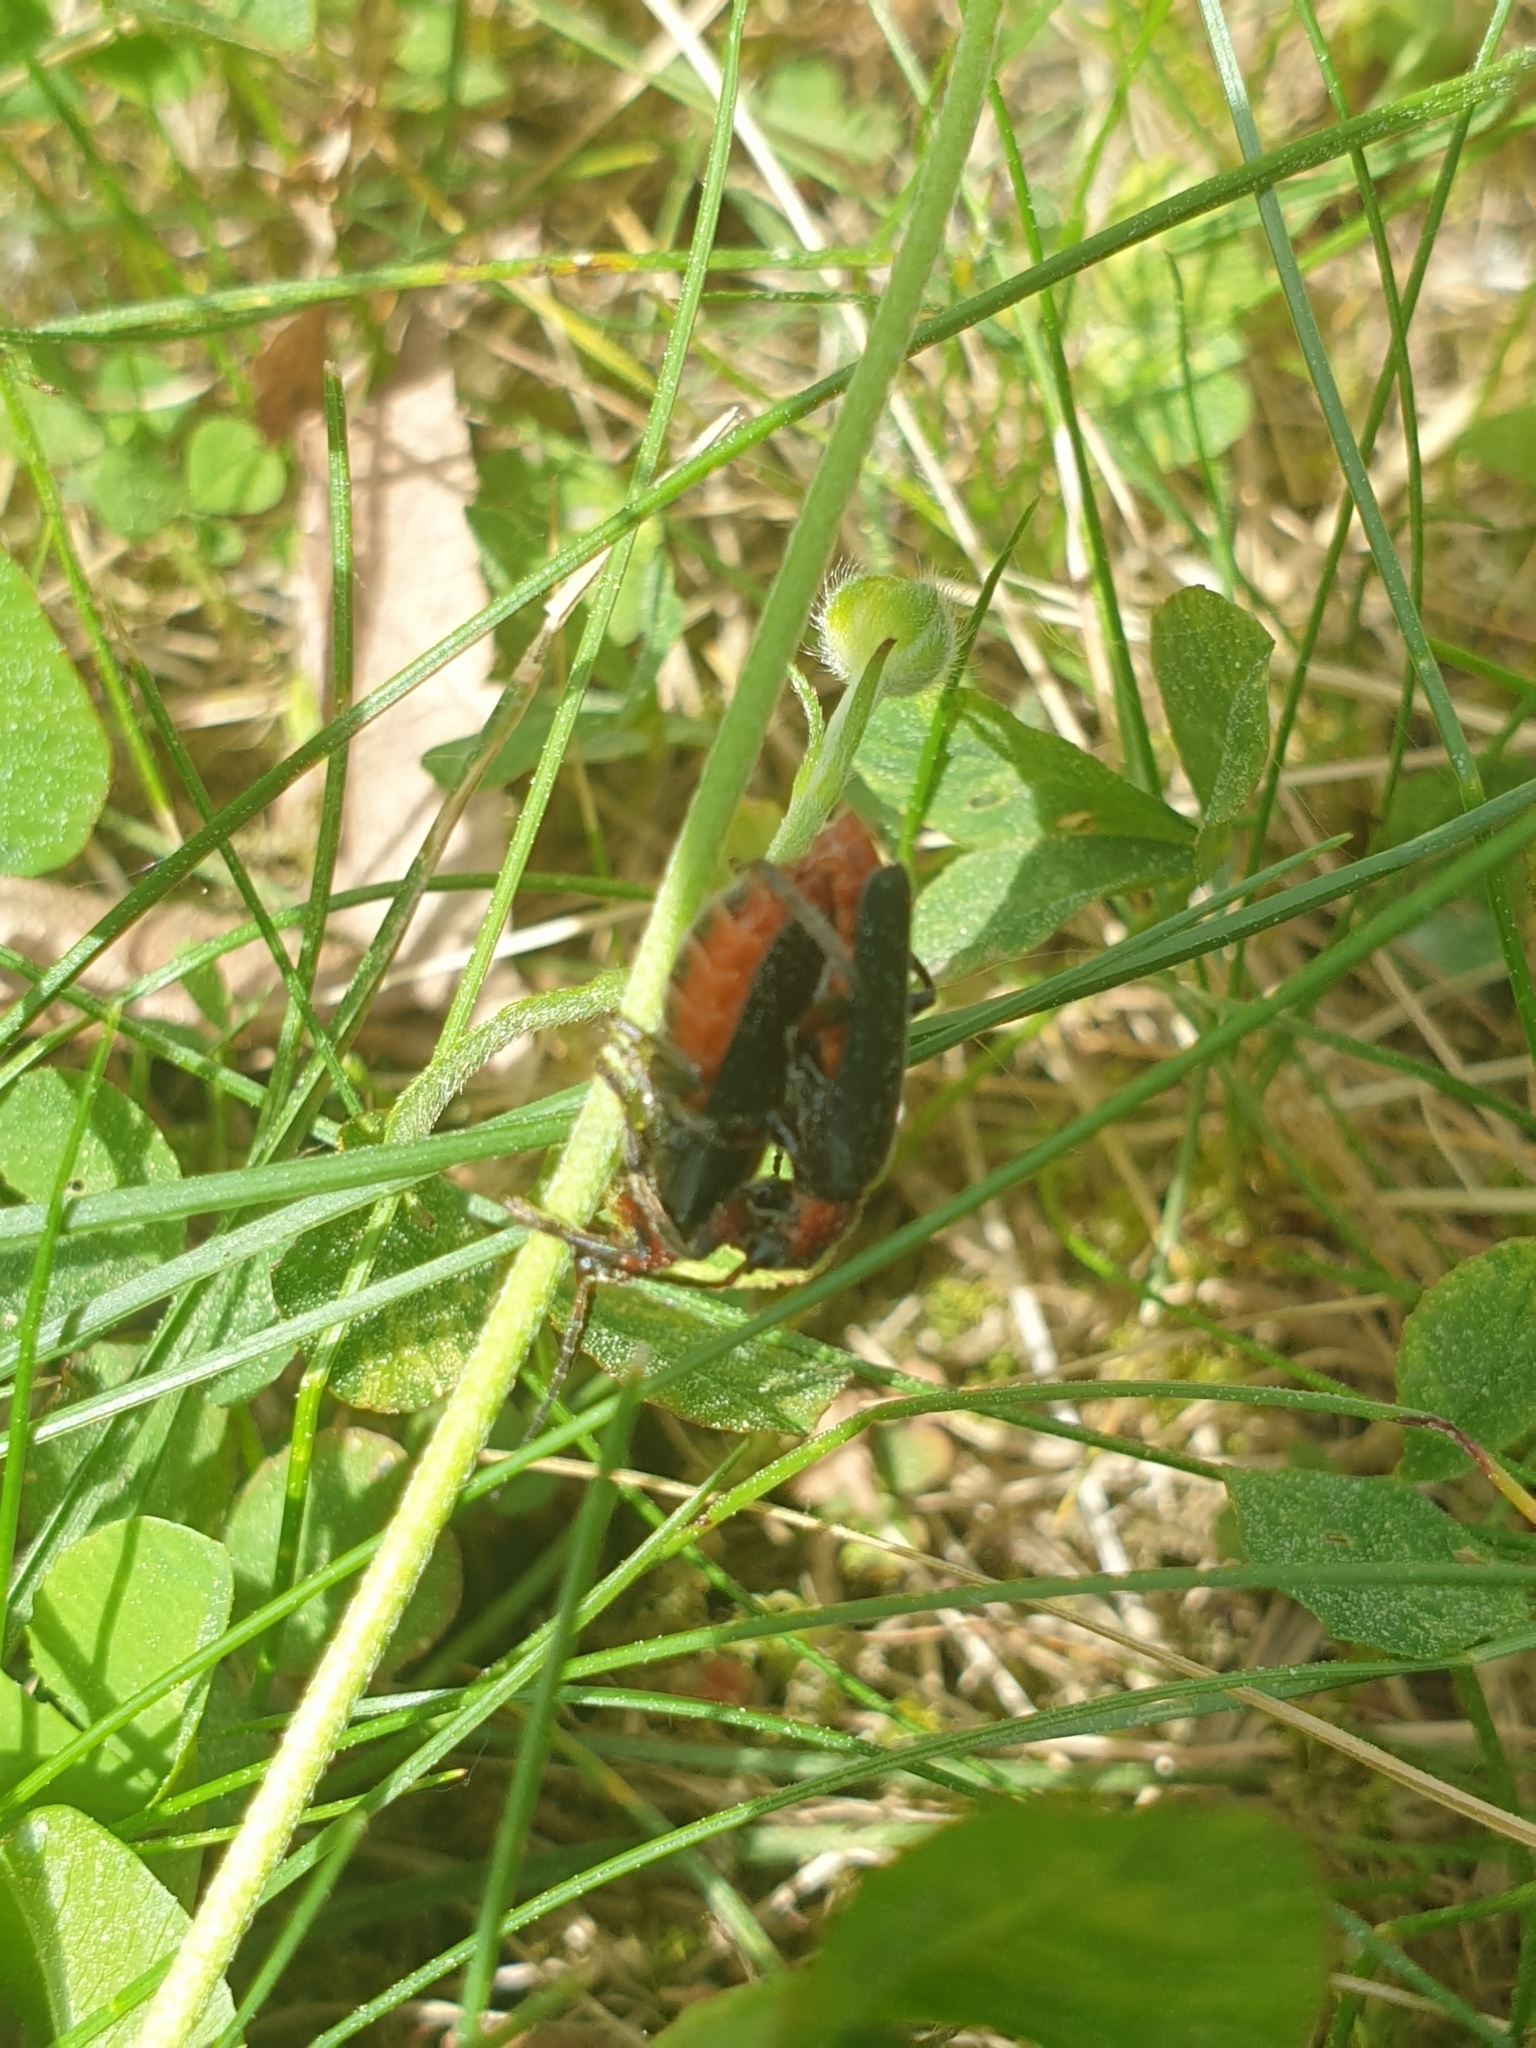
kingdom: Animalia
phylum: Arthropoda
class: Insecta
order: Coleoptera
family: Cantharidae
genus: Cantharis
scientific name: Cantharis rustica
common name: Soldier beetle
